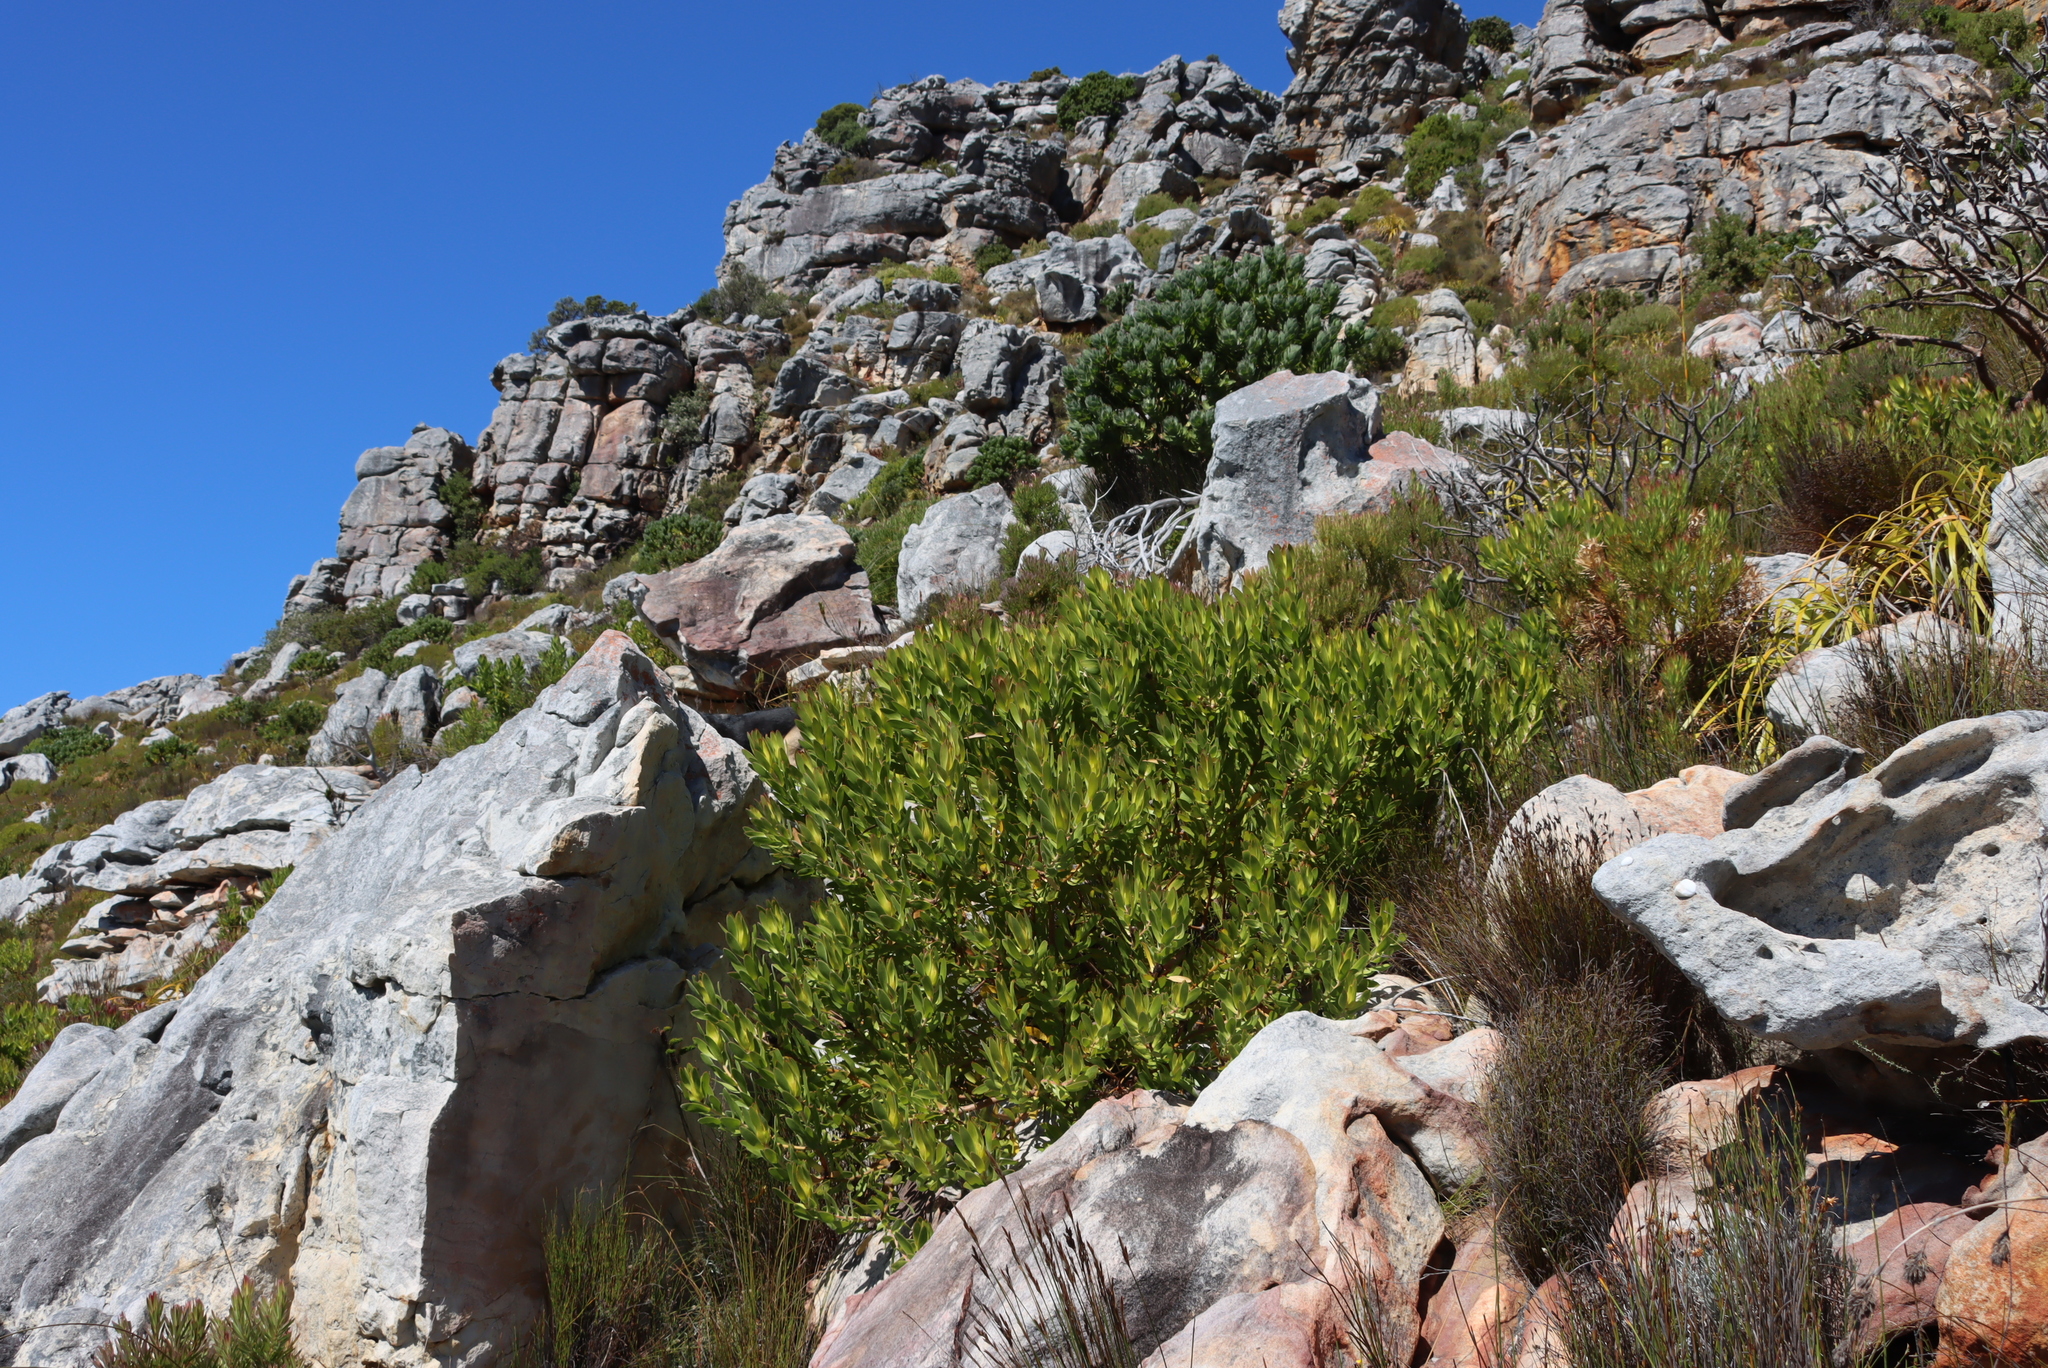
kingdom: Plantae
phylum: Tracheophyta
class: Magnoliopsida
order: Proteales
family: Proteaceae
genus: Leucadendron
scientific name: Leucadendron laureolum
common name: Golden sunshinebush
